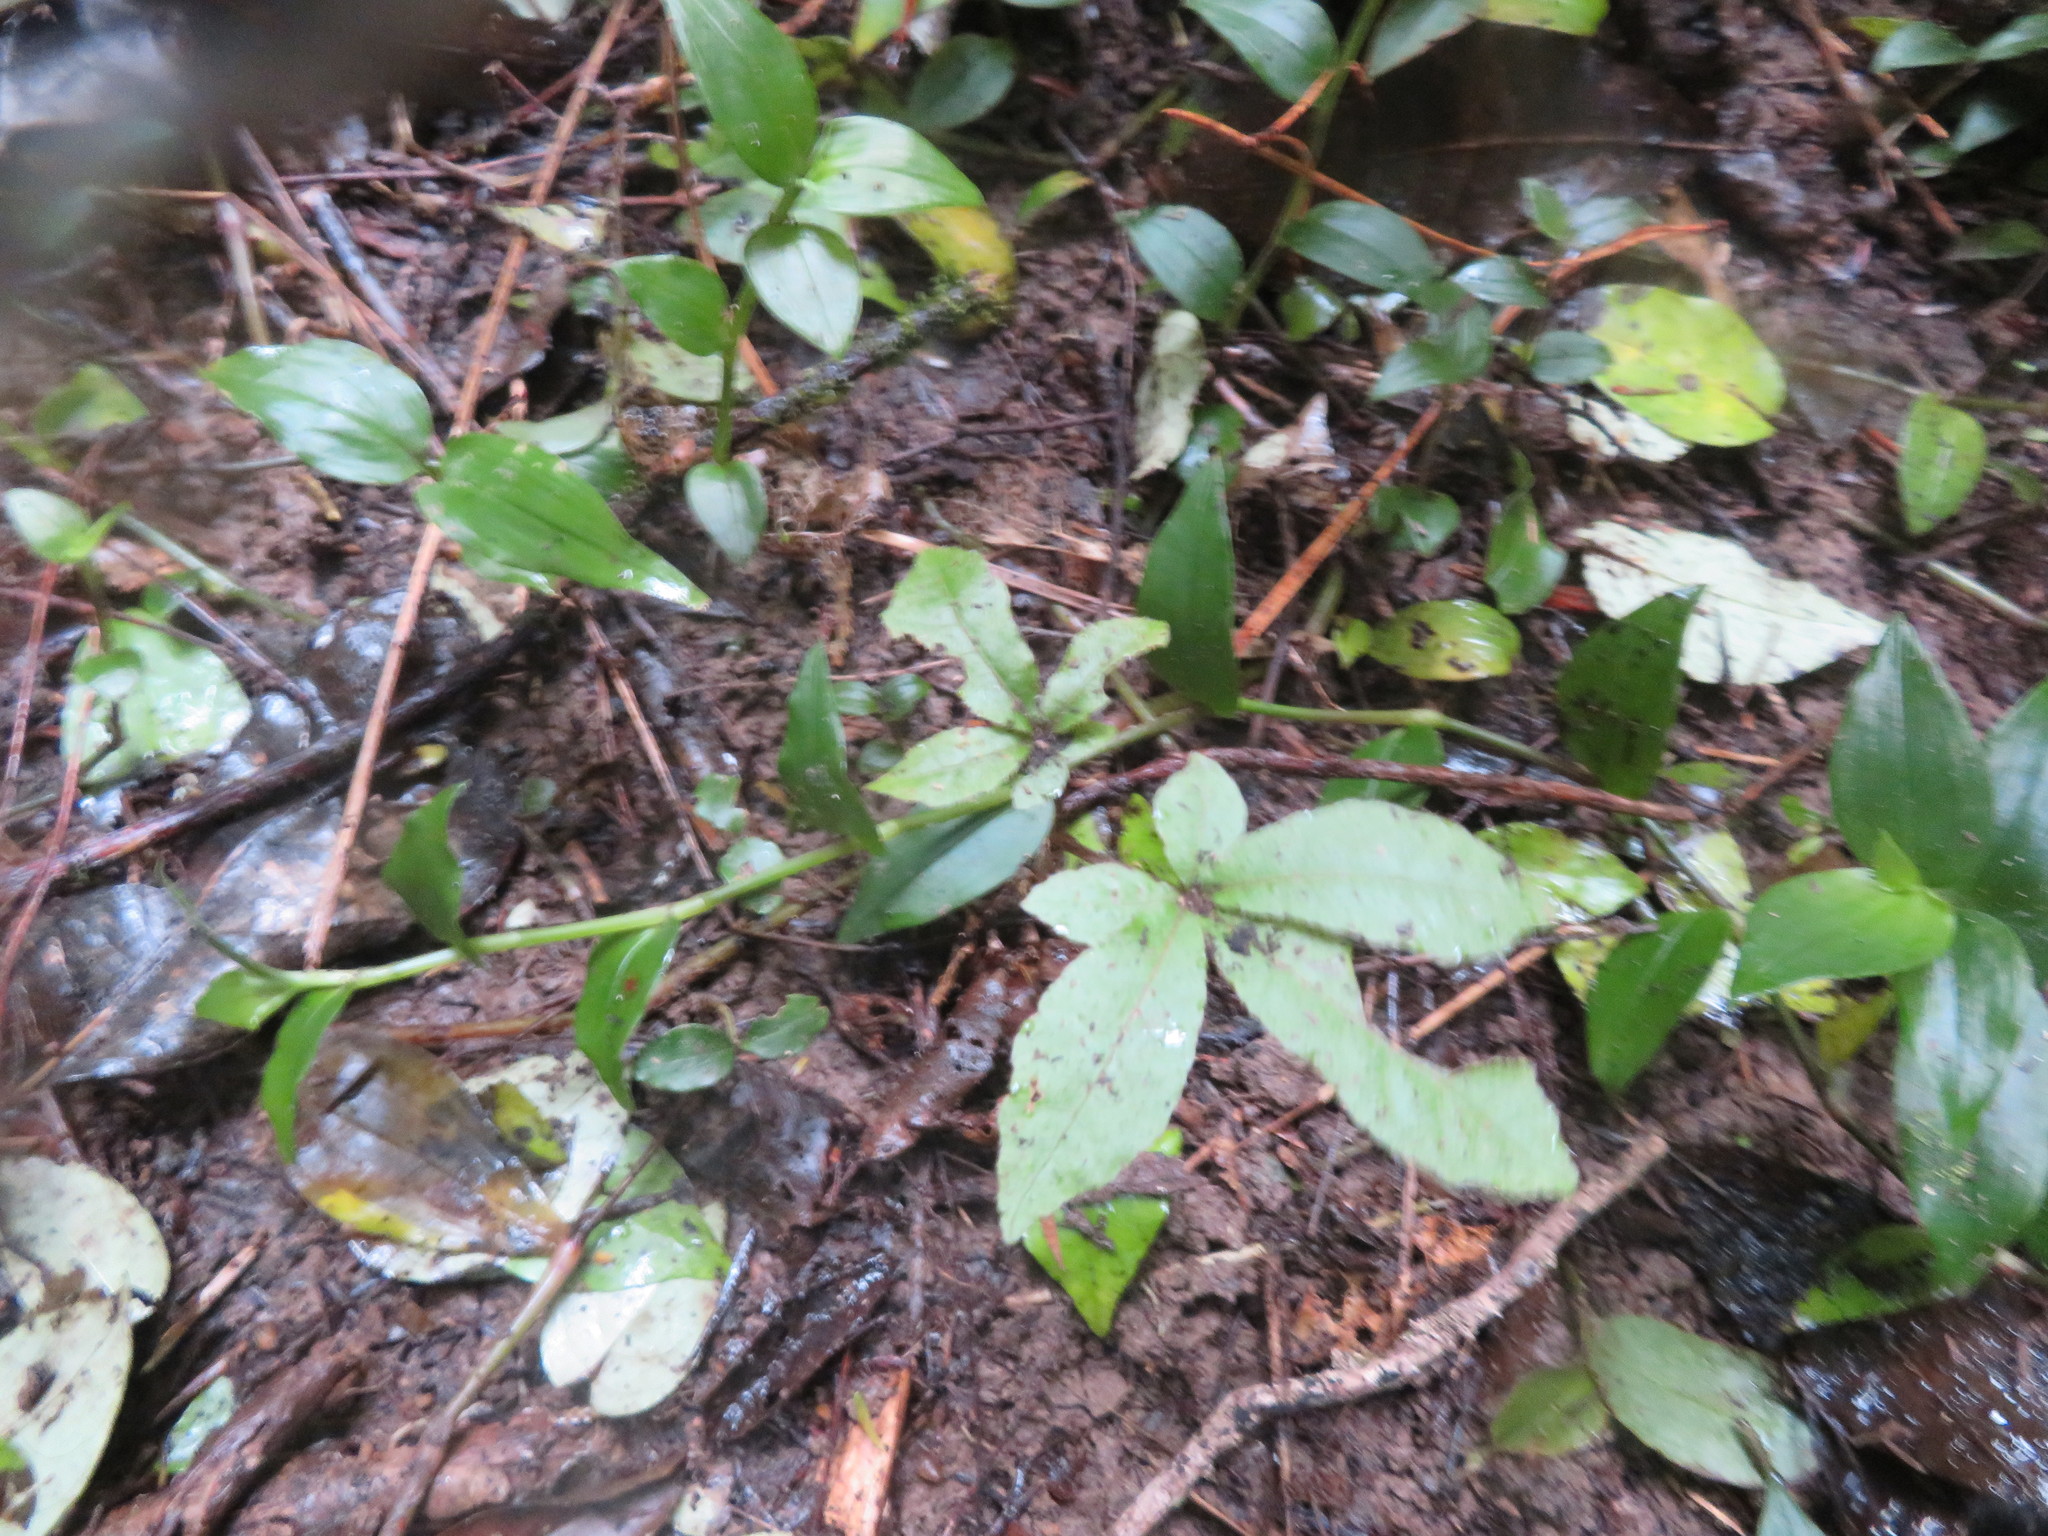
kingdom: Plantae
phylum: Tracheophyta
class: Magnoliopsida
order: Apiales
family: Araliaceae
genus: Schefflera
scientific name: Schefflera digitata
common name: Pate
